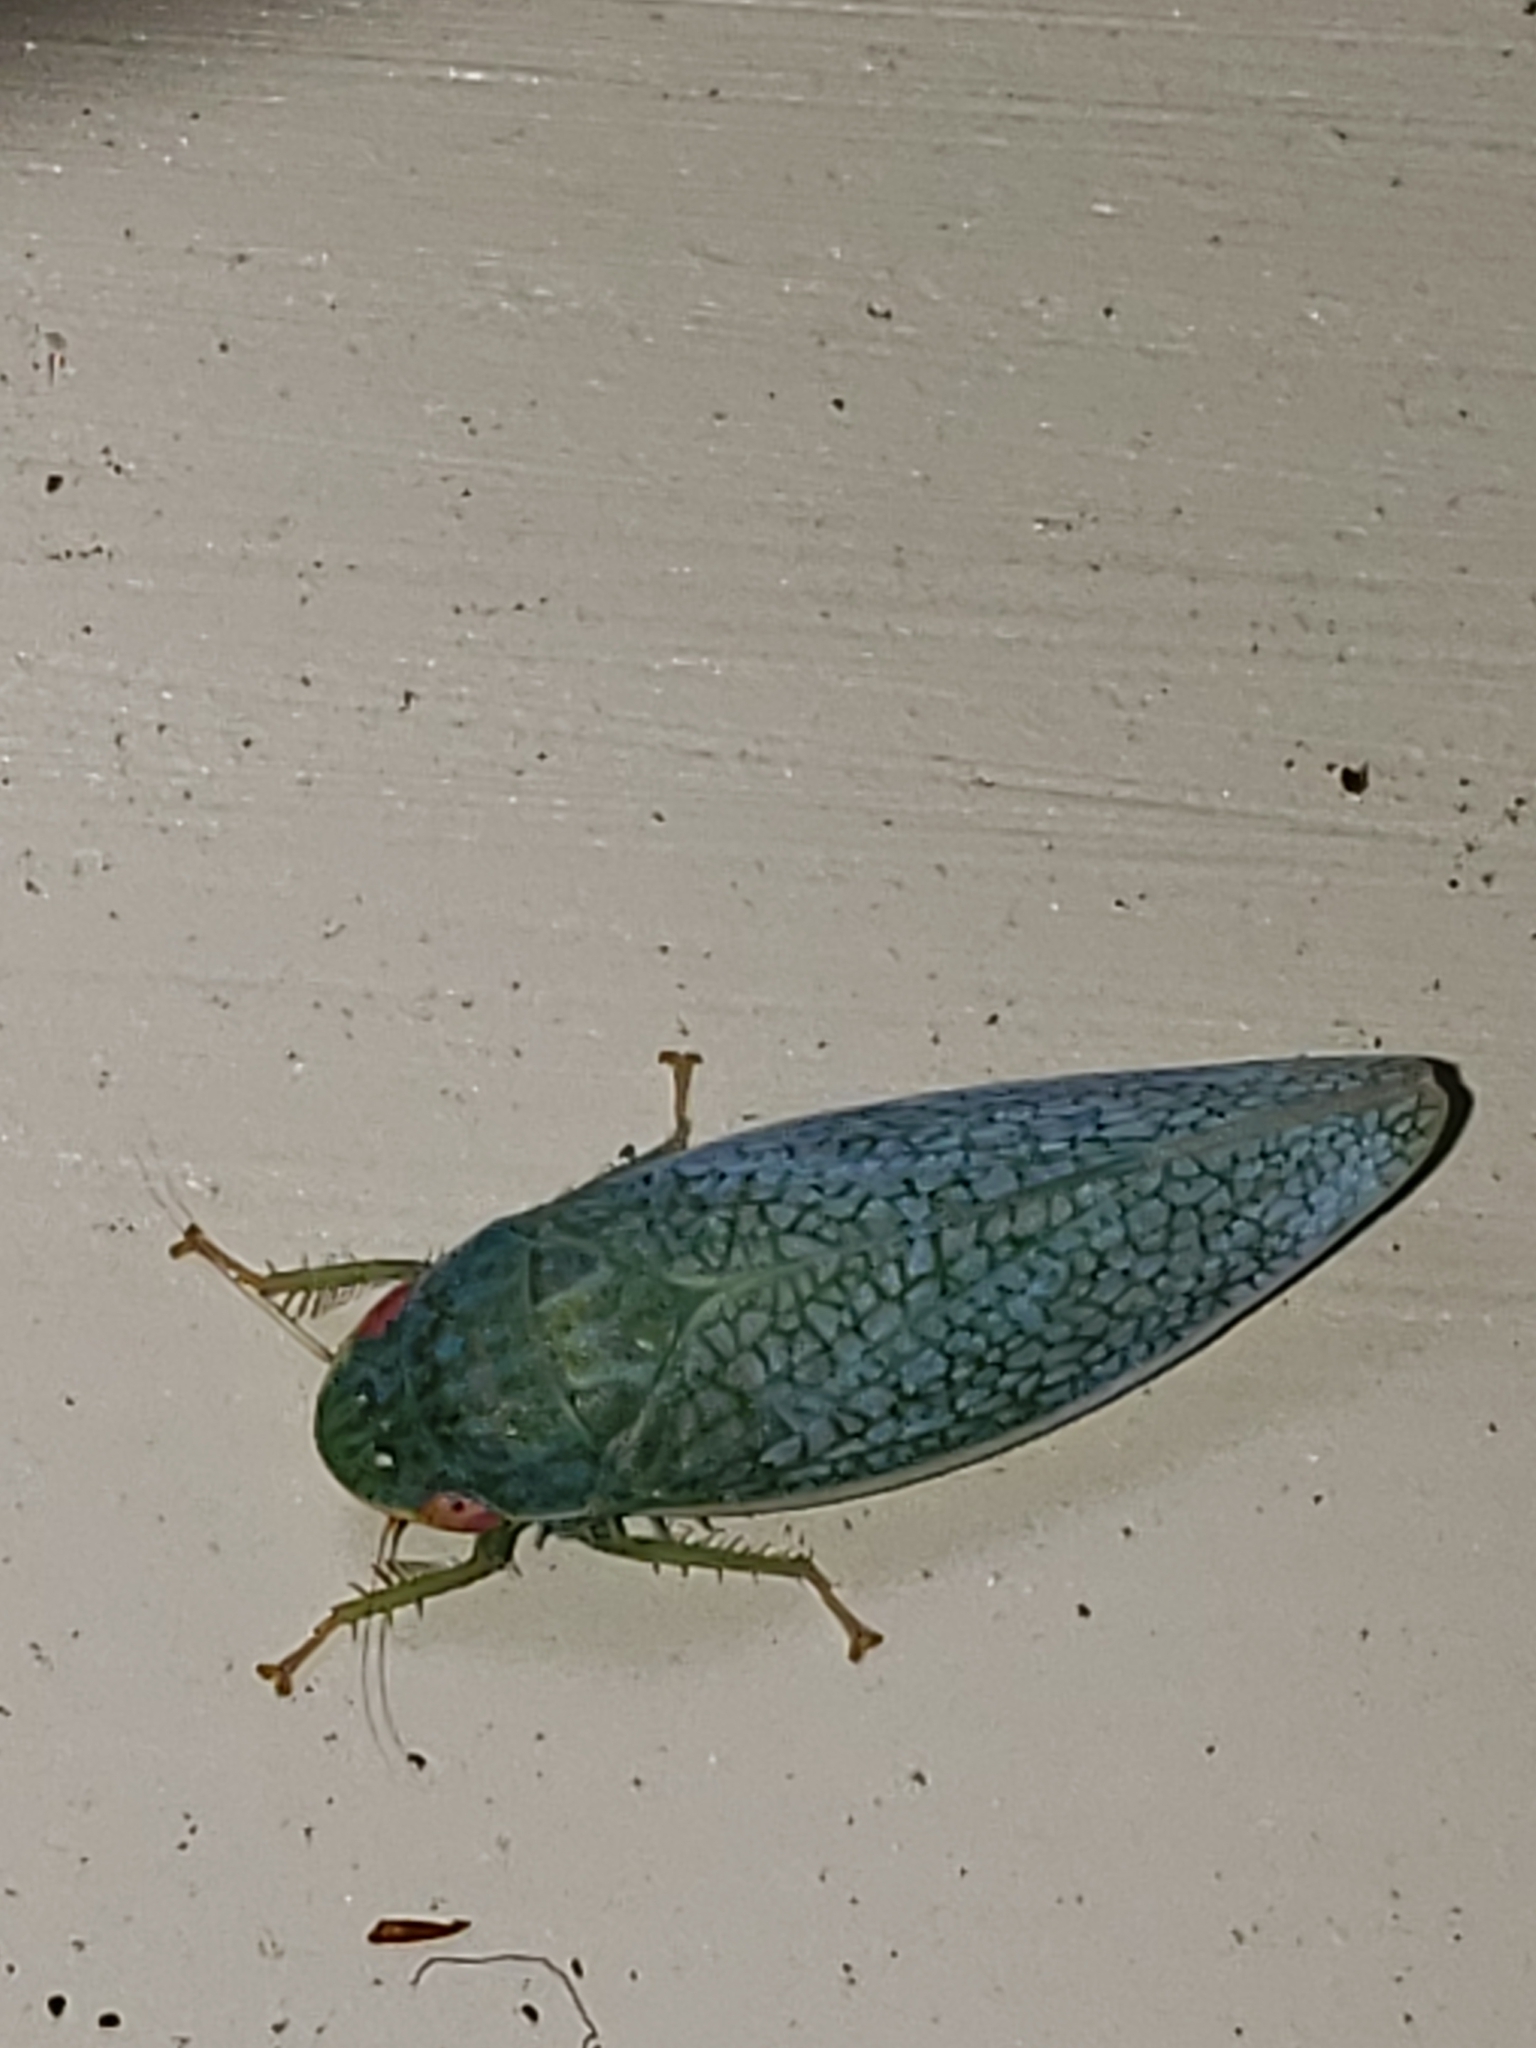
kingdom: Animalia
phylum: Arthropoda
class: Insecta
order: Hemiptera
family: Cicadellidae
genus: Gyponana
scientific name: Gyponana procera
